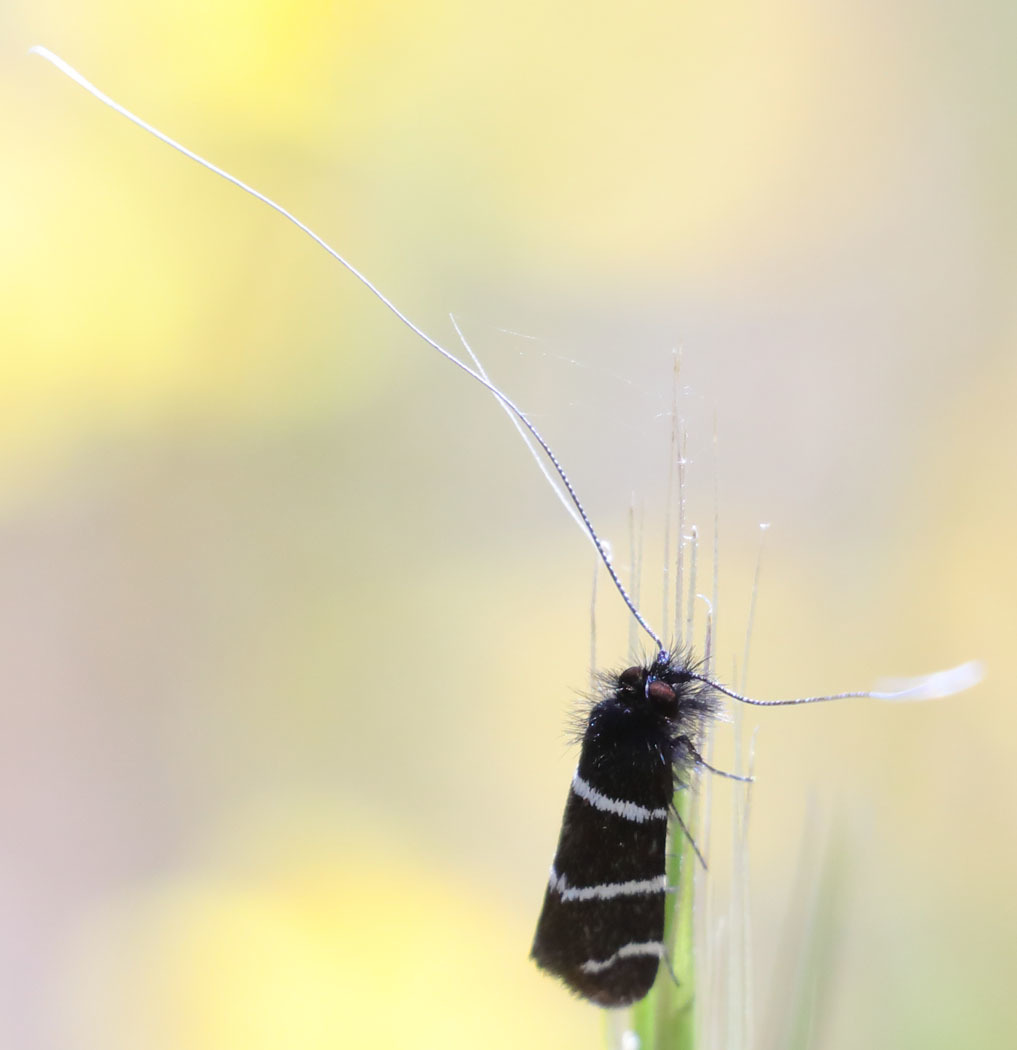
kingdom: Animalia
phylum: Arthropoda
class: Insecta
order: Lepidoptera
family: Adelidae
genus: Adela
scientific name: Adela trigrapha
